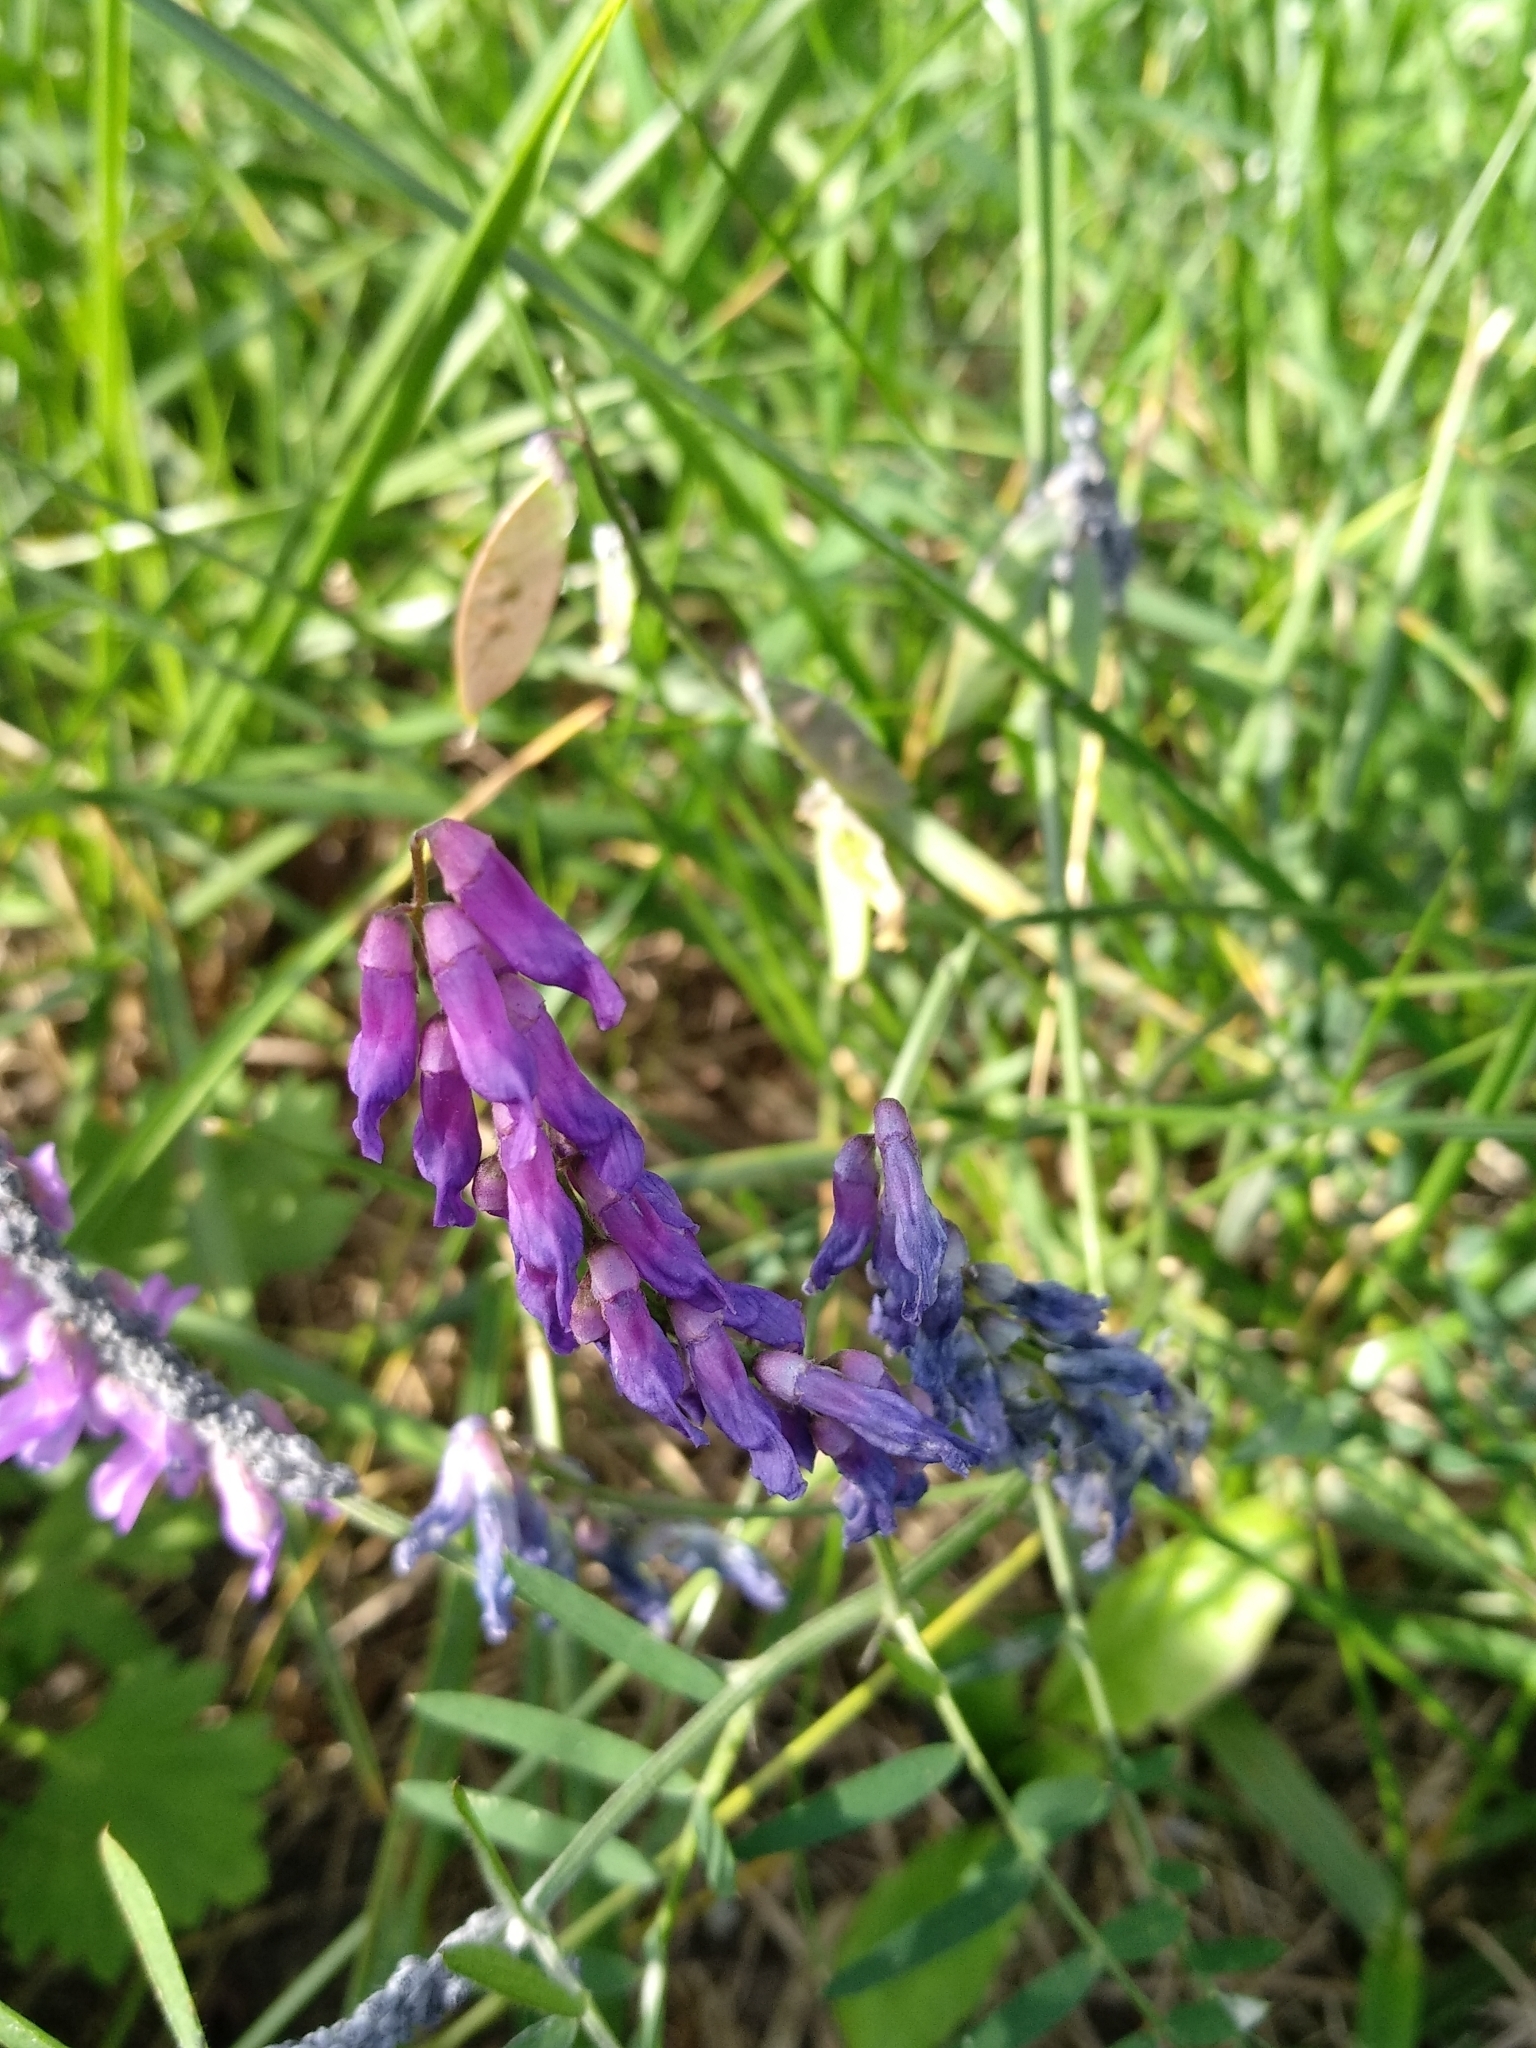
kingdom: Plantae
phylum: Tracheophyta
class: Magnoliopsida
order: Fabales
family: Fabaceae
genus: Vicia
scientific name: Vicia cracca
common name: Bird vetch
